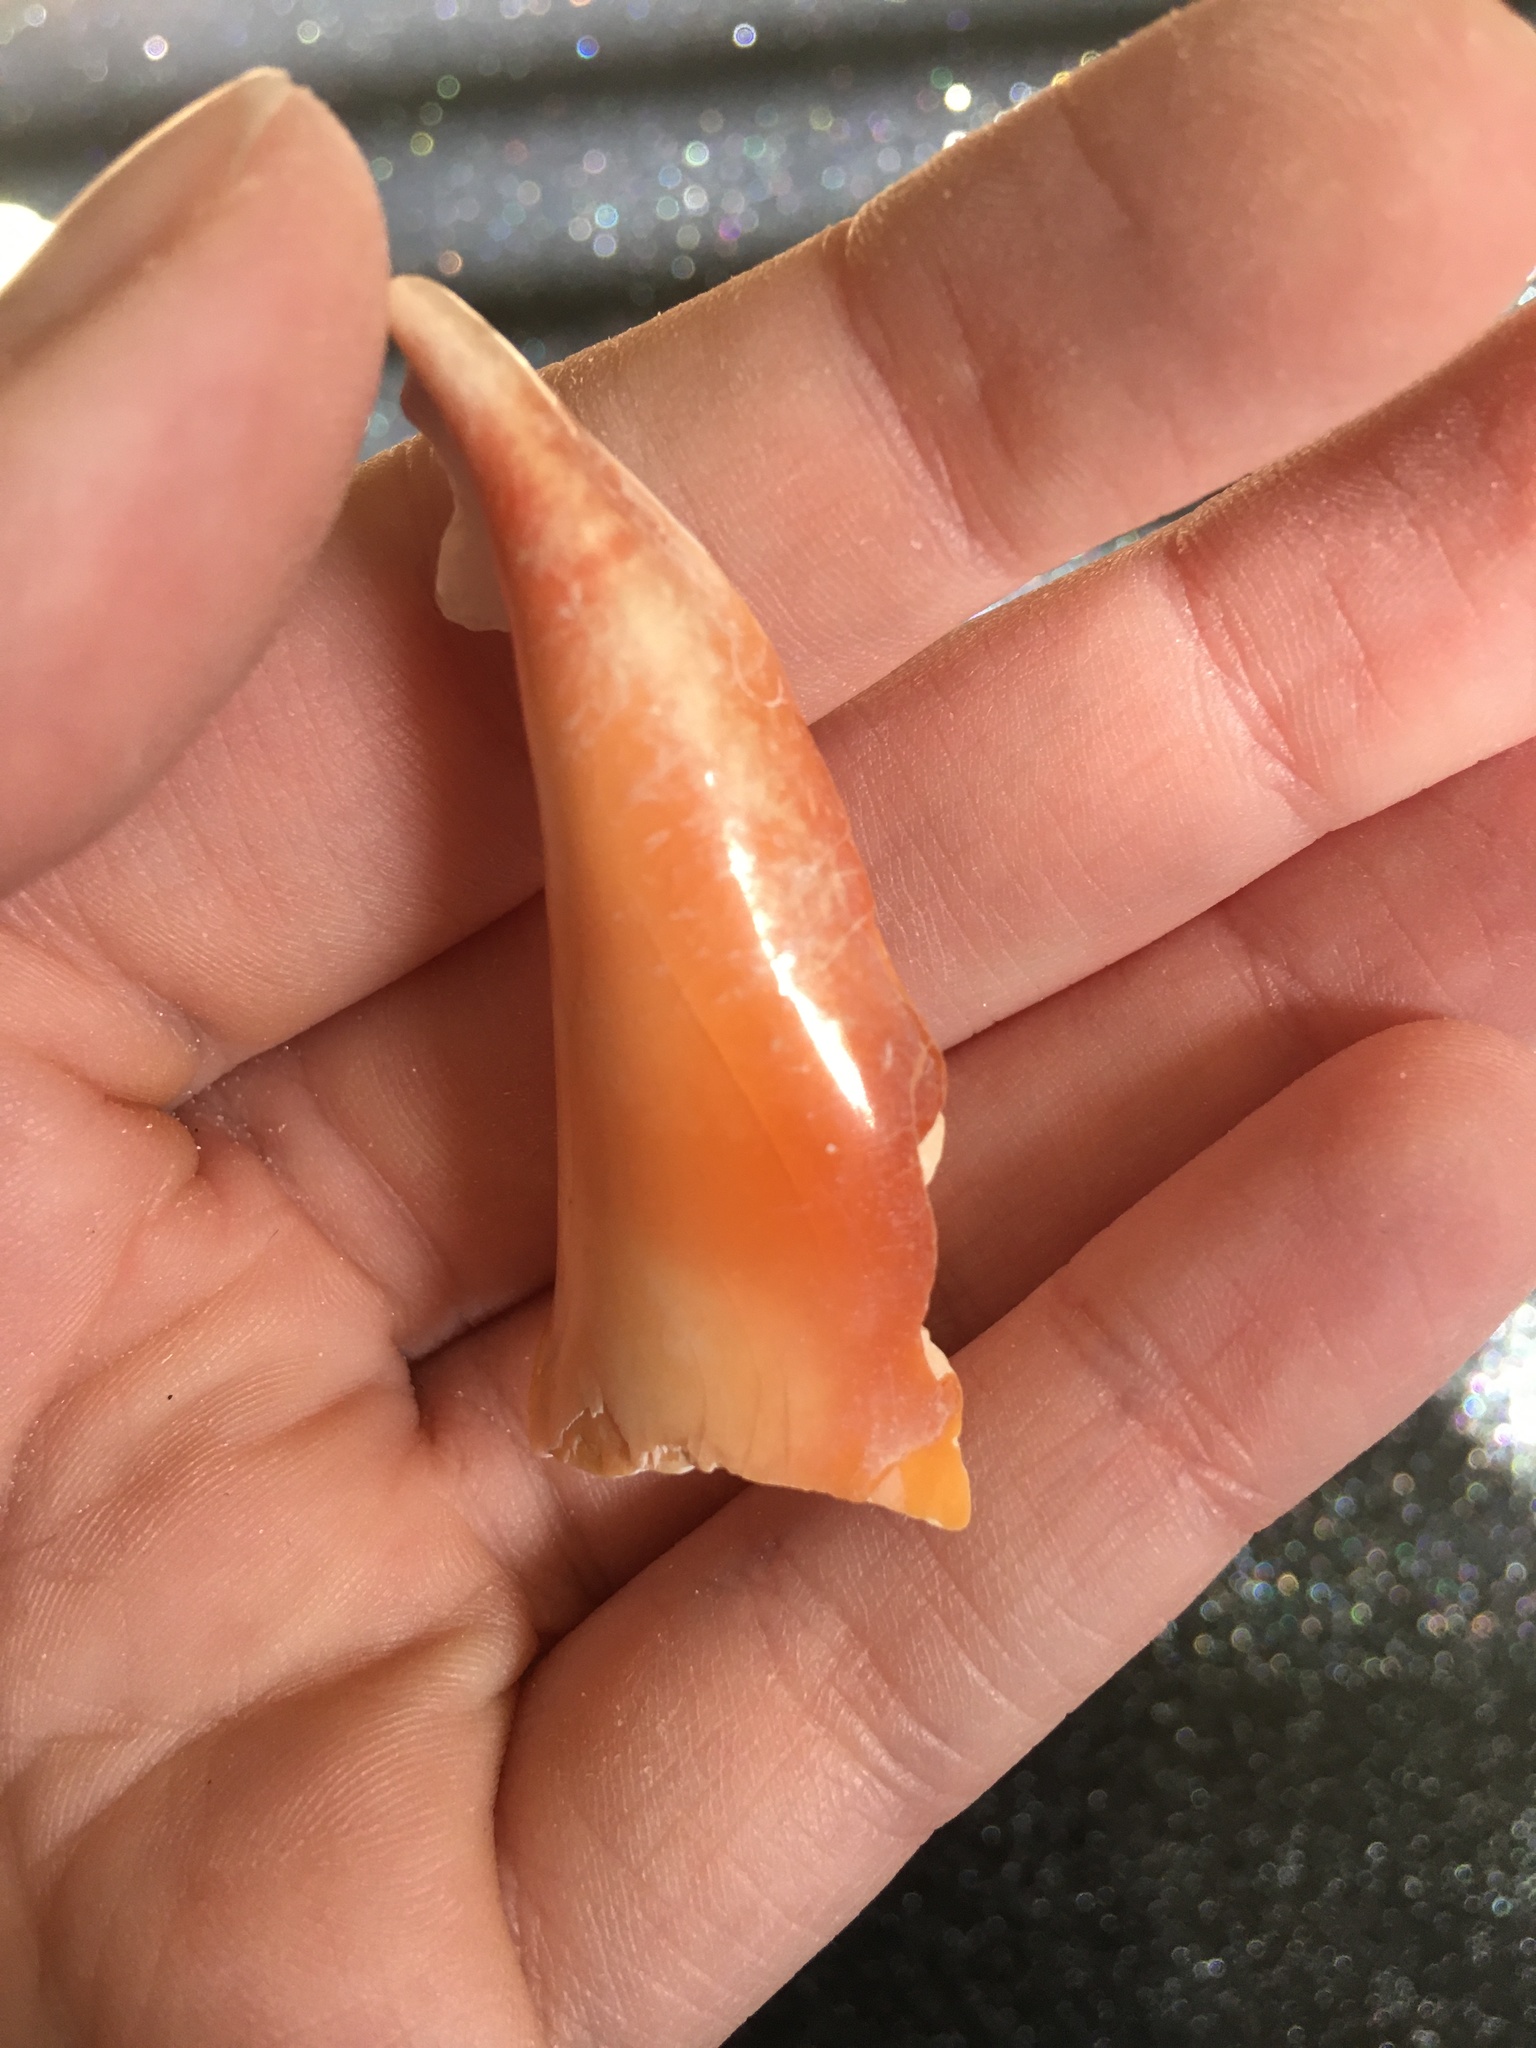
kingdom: Animalia
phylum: Mollusca
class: Gastropoda
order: Littorinimorpha
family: Strombidae
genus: Strombus
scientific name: Strombus alatus
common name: Florida fighting conch
